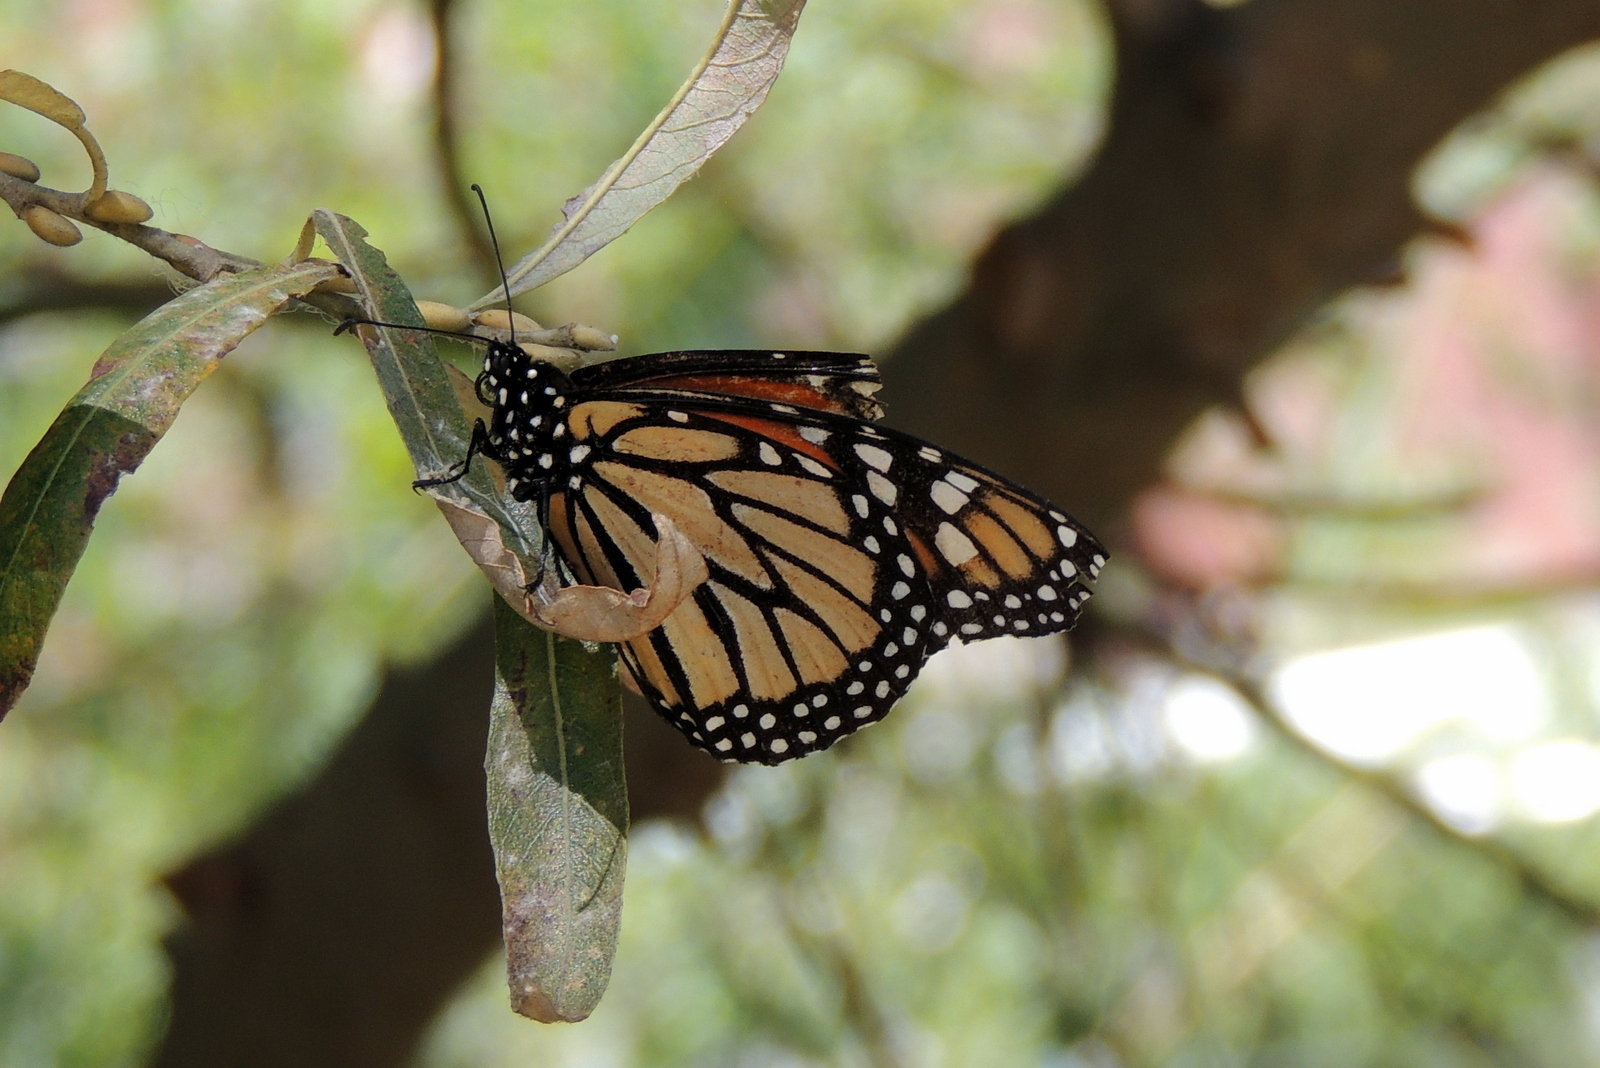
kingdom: Animalia
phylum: Arthropoda
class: Insecta
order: Lepidoptera
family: Nymphalidae
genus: Danaus
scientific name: Danaus plexippus
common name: Monarch
